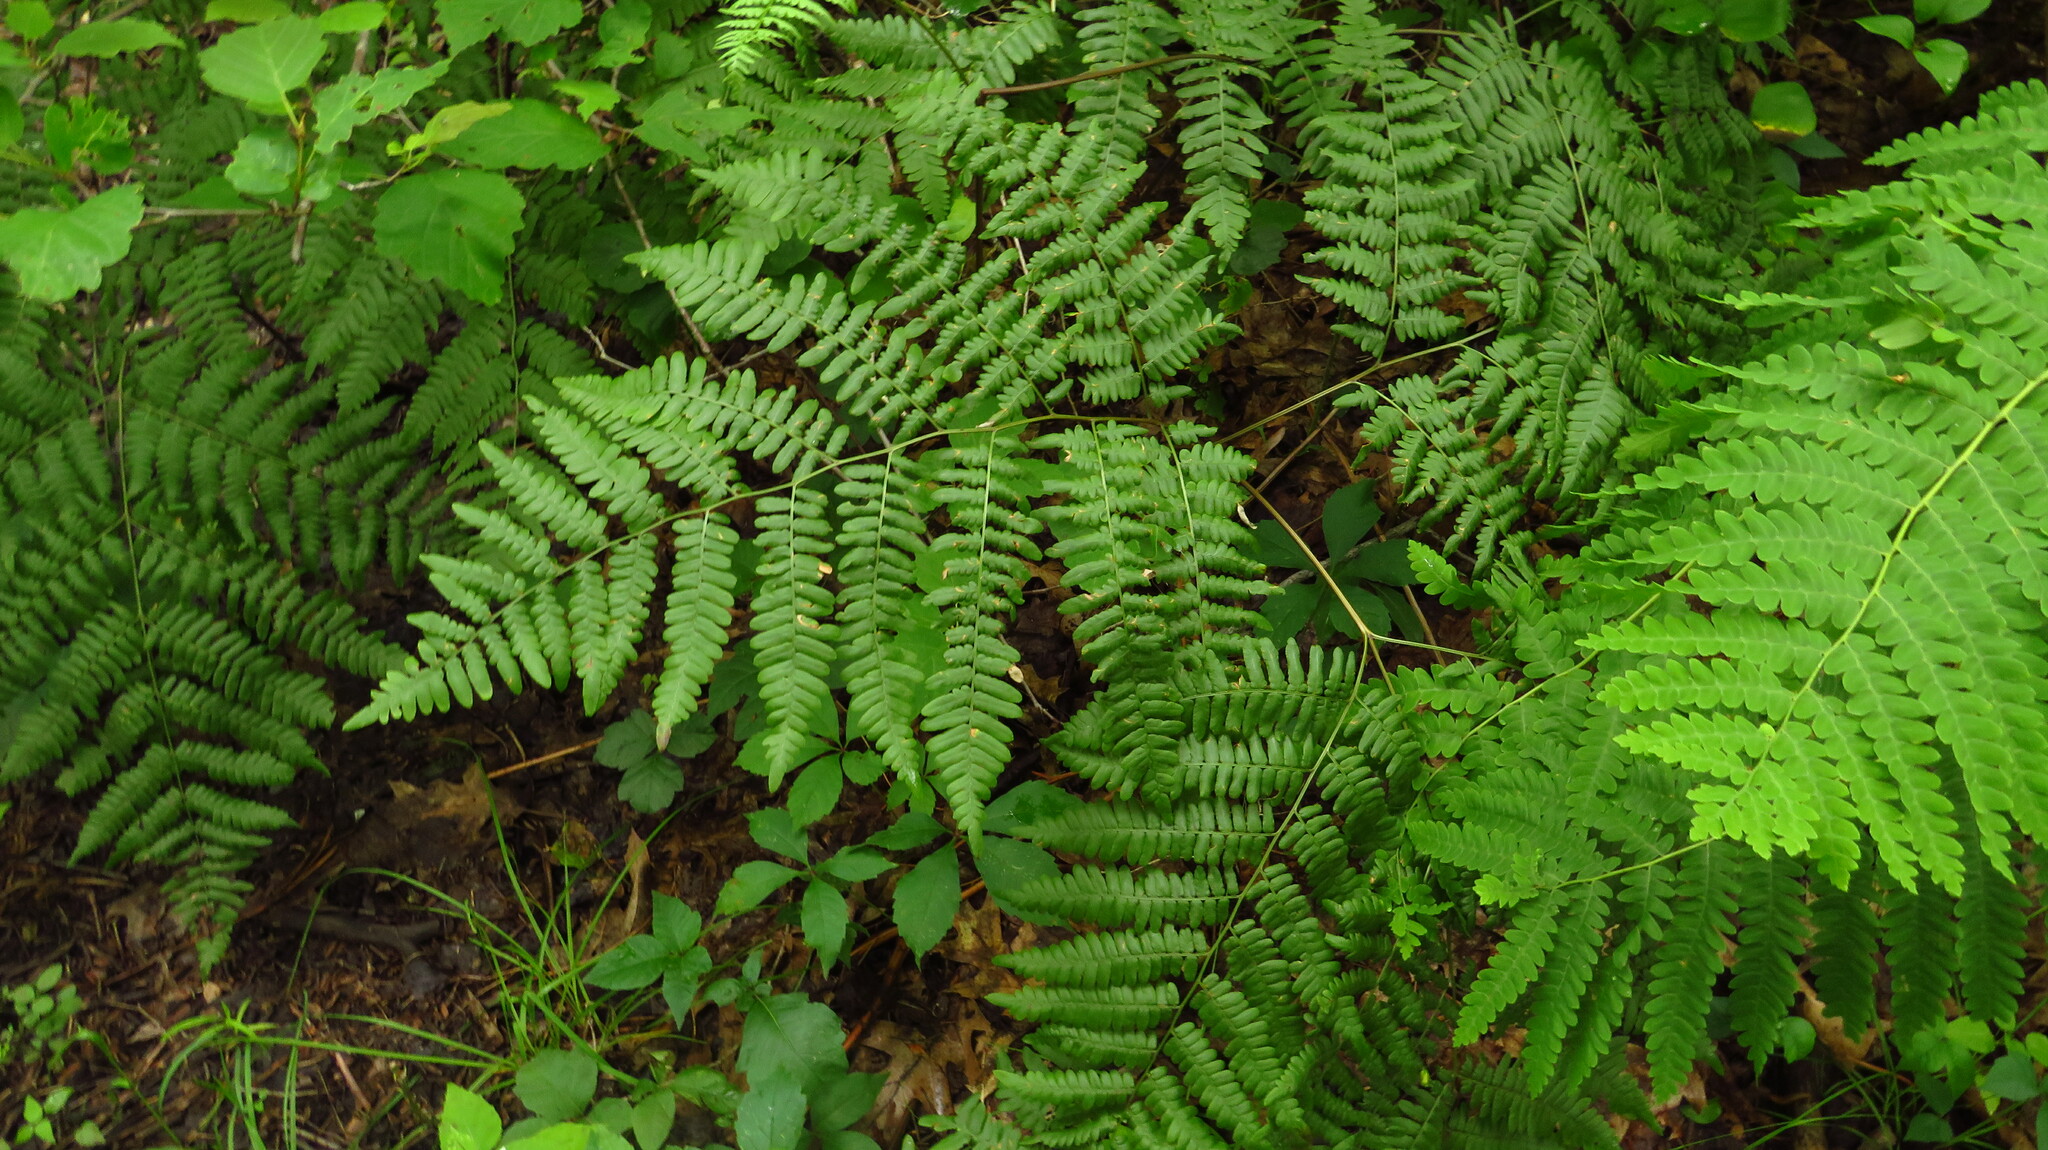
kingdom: Plantae
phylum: Tracheophyta
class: Polypodiopsida
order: Polypodiales
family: Dennstaedtiaceae
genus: Pteridium
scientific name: Pteridium aquilinum
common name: Bracken
